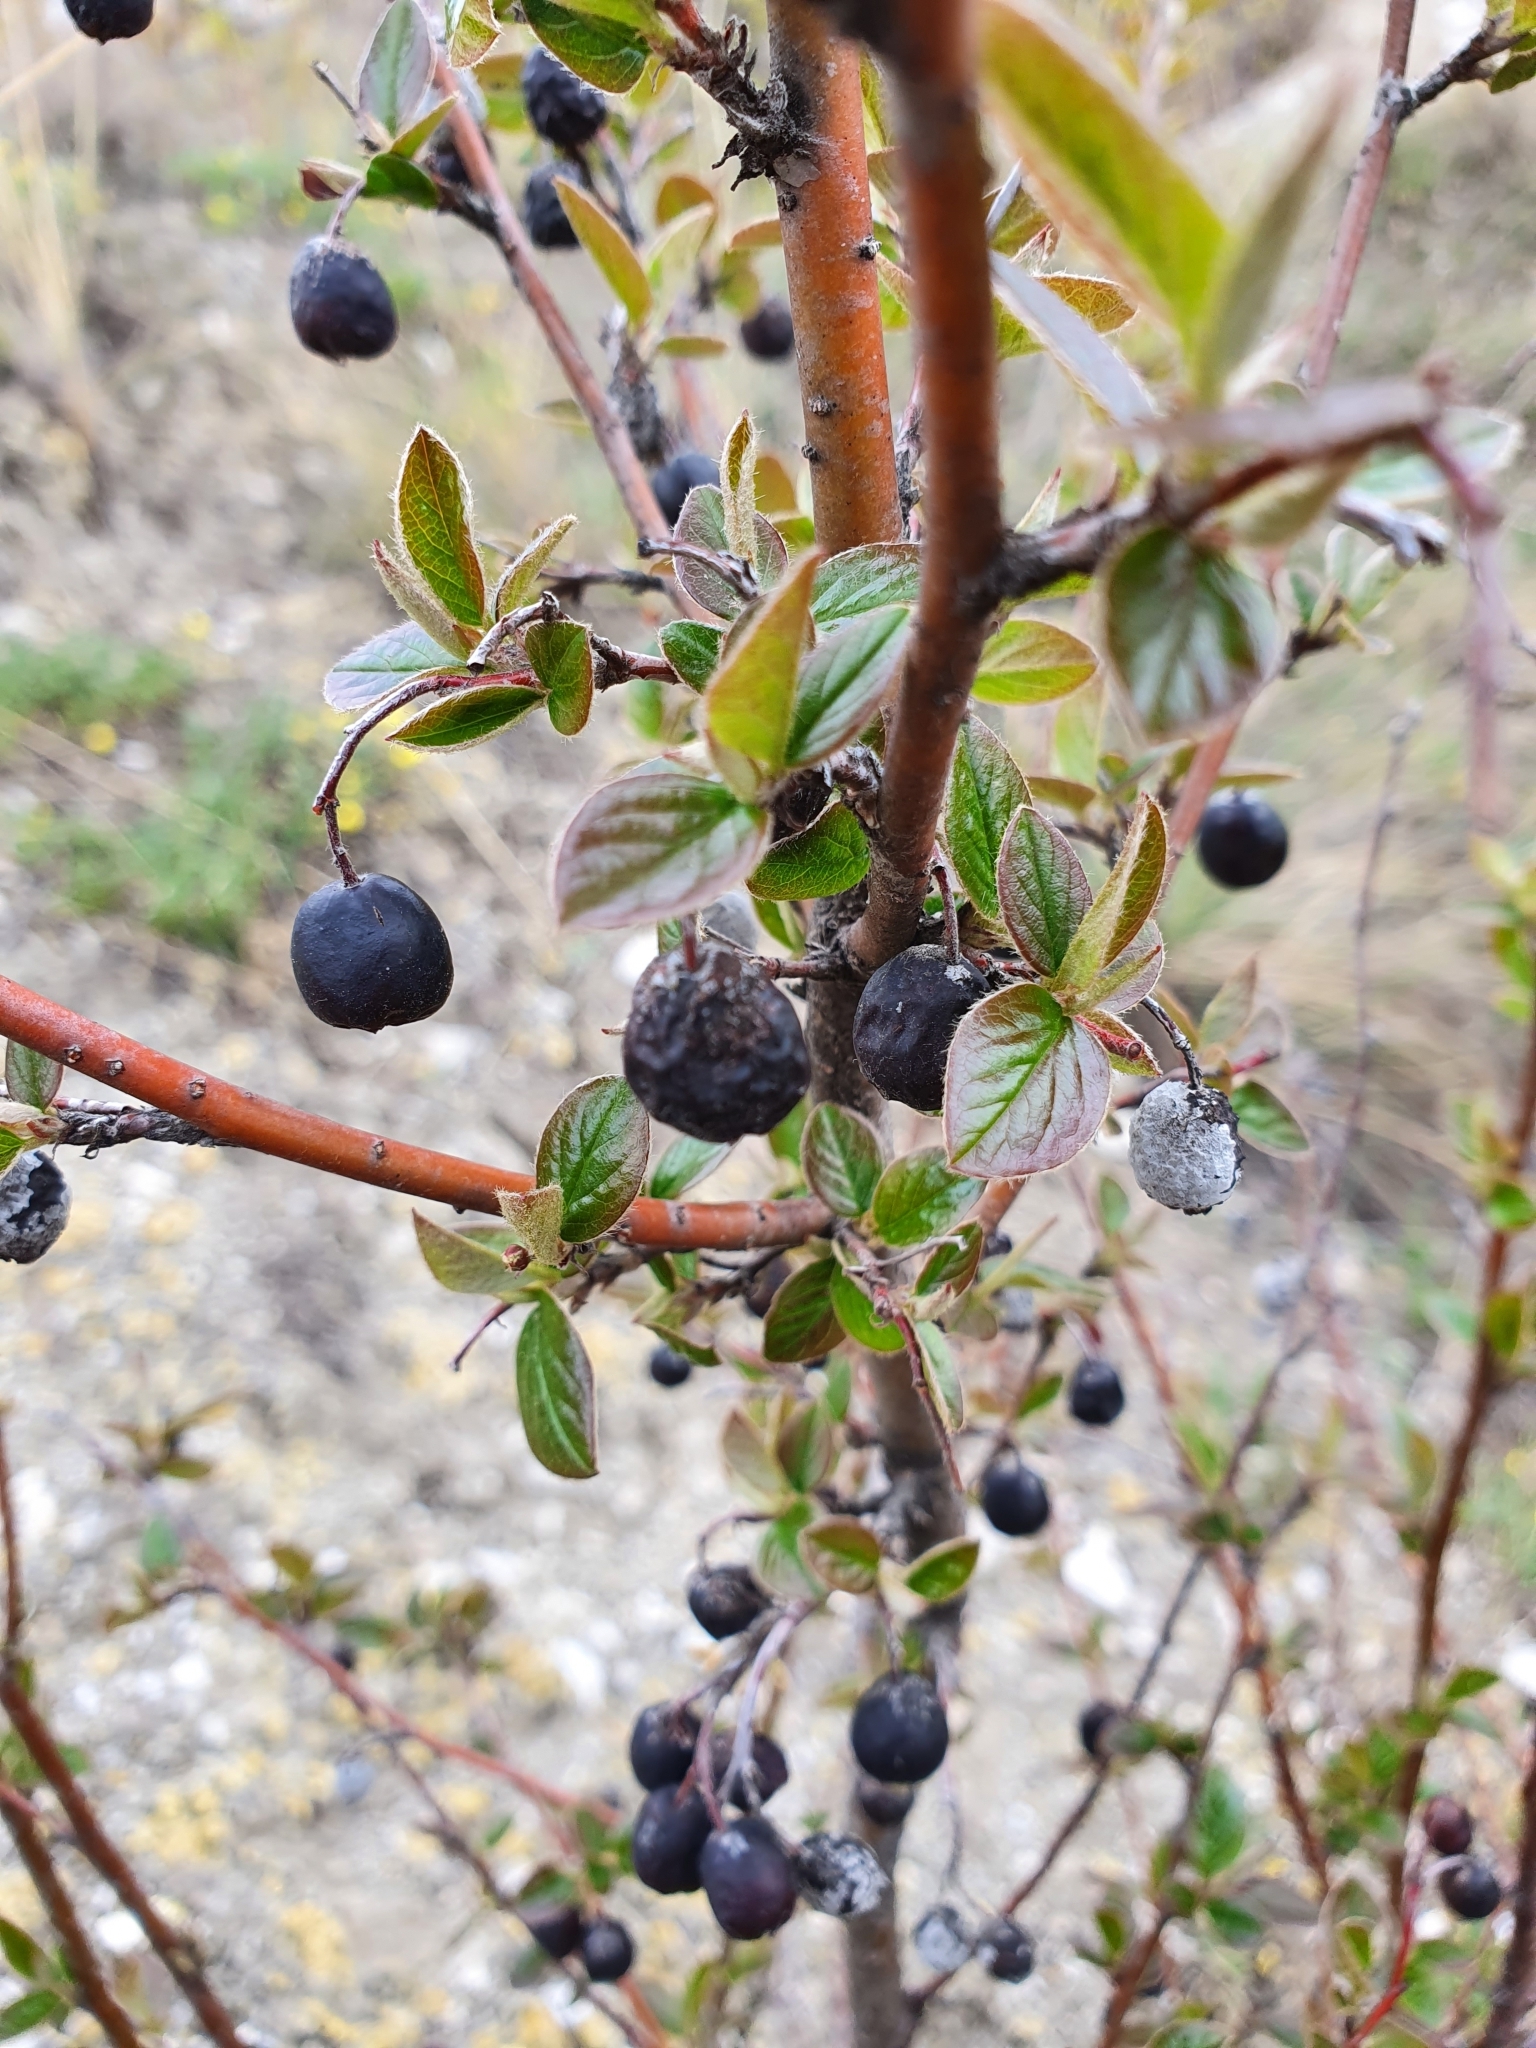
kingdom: Plantae
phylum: Tracheophyta
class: Magnoliopsida
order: Rosales
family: Rosaceae
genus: Cotoneaster
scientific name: Cotoneaster acutifolius
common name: Peking cotoneaster
